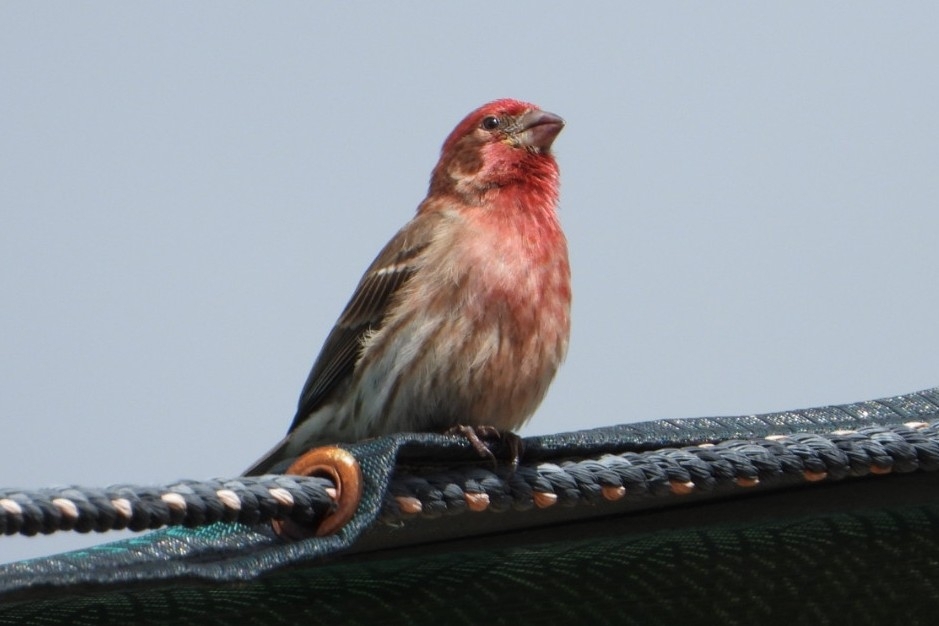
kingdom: Animalia
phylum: Chordata
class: Aves
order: Passeriformes
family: Fringillidae
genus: Haemorhous
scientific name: Haemorhous mexicanus
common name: House finch
